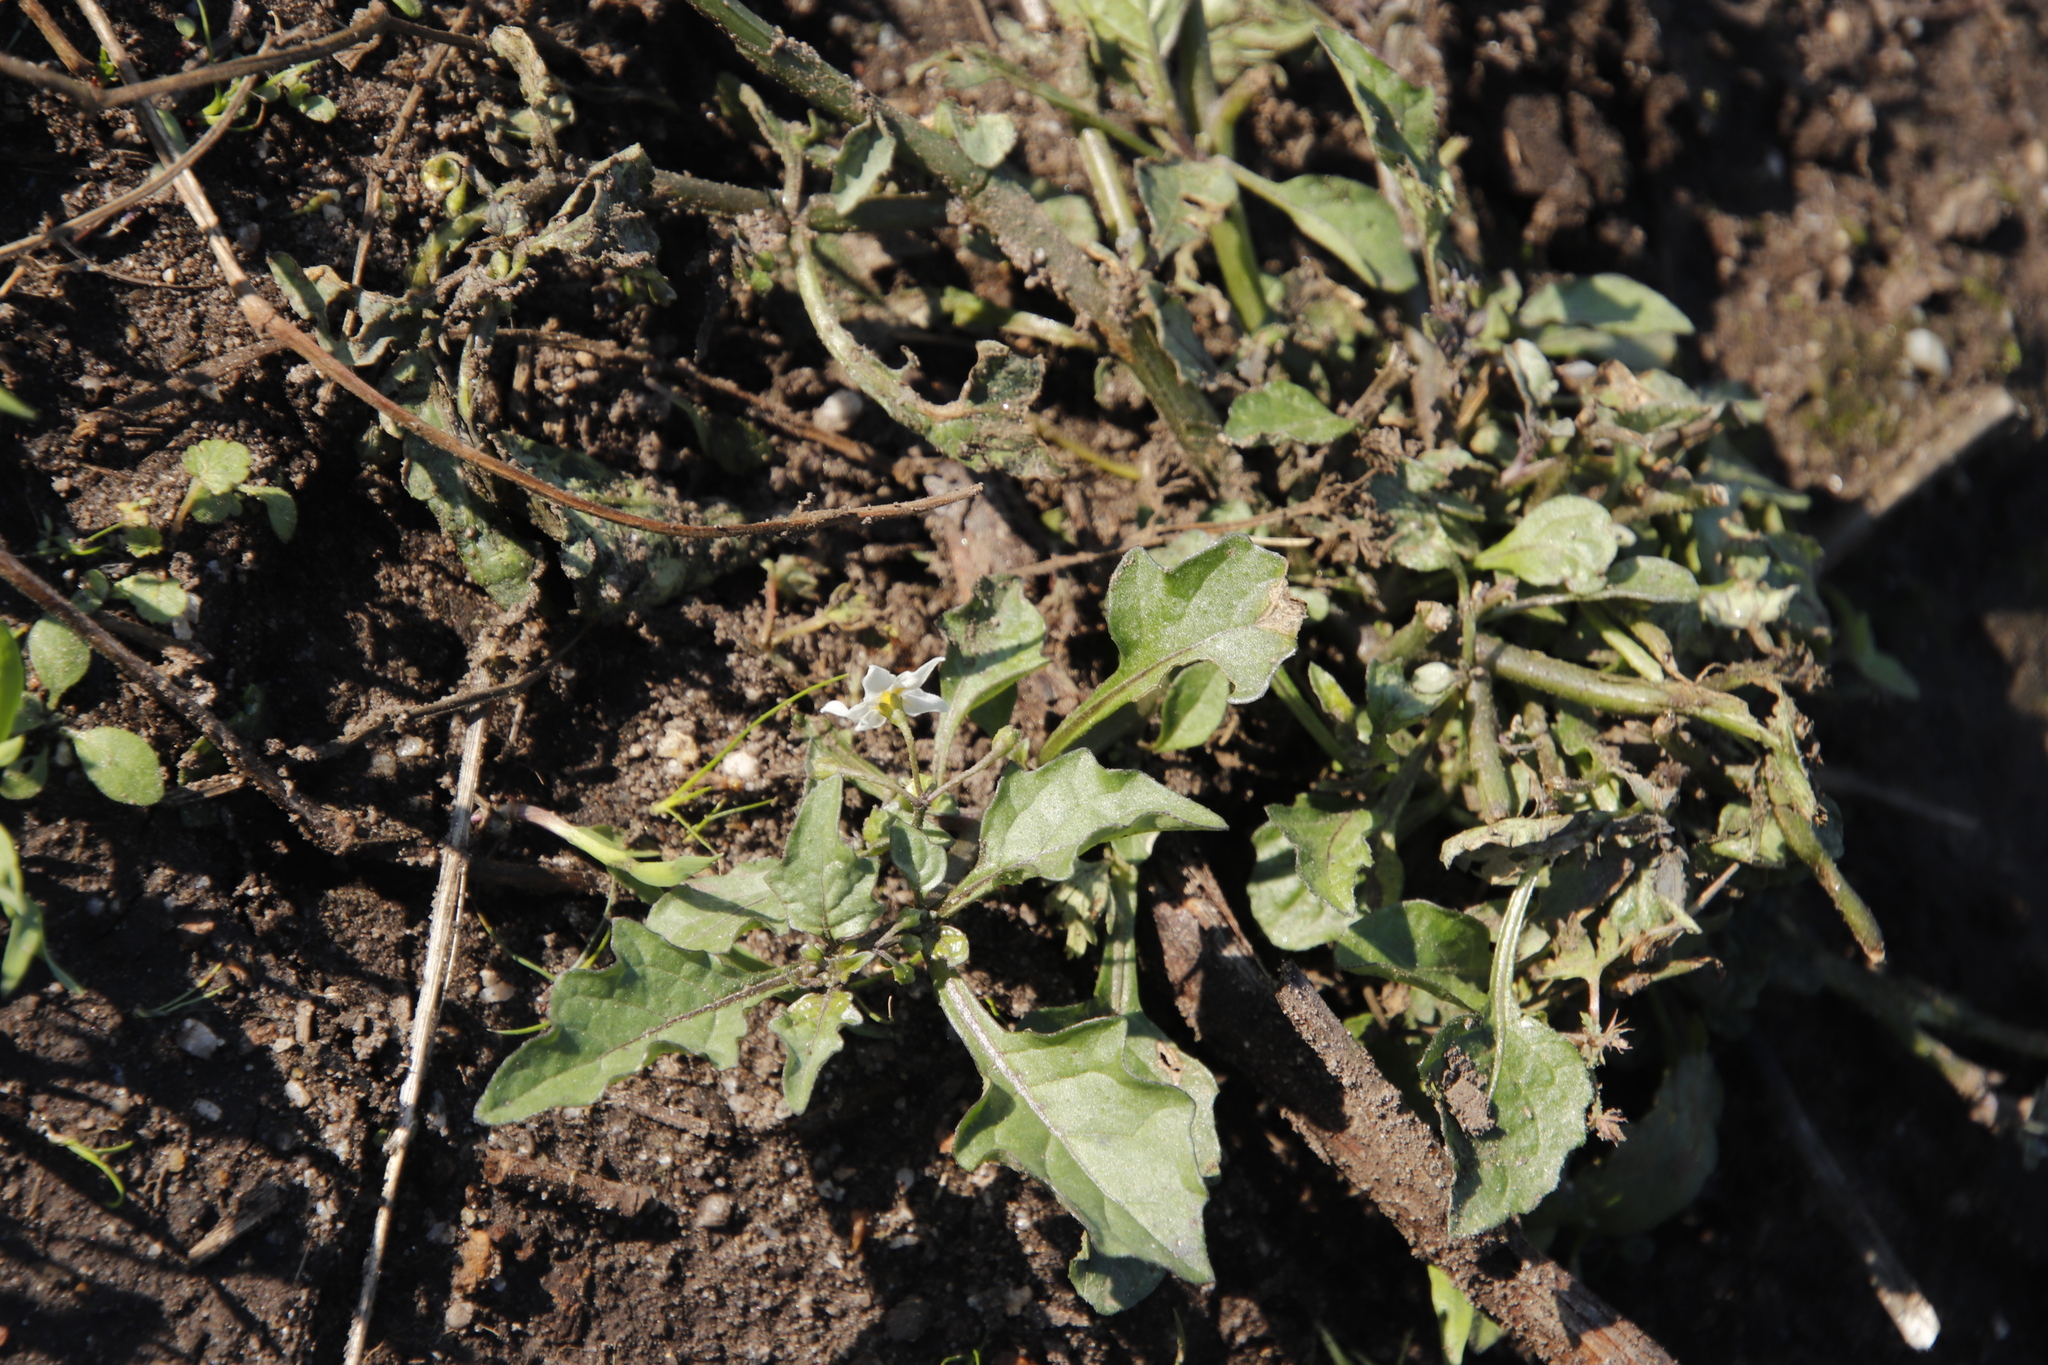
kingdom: Plantae
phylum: Tracheophyta
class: Magnoliopsida
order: Solanales
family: Solanaceae
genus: Solanum
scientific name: Solanum nigrum
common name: Black nightshade
